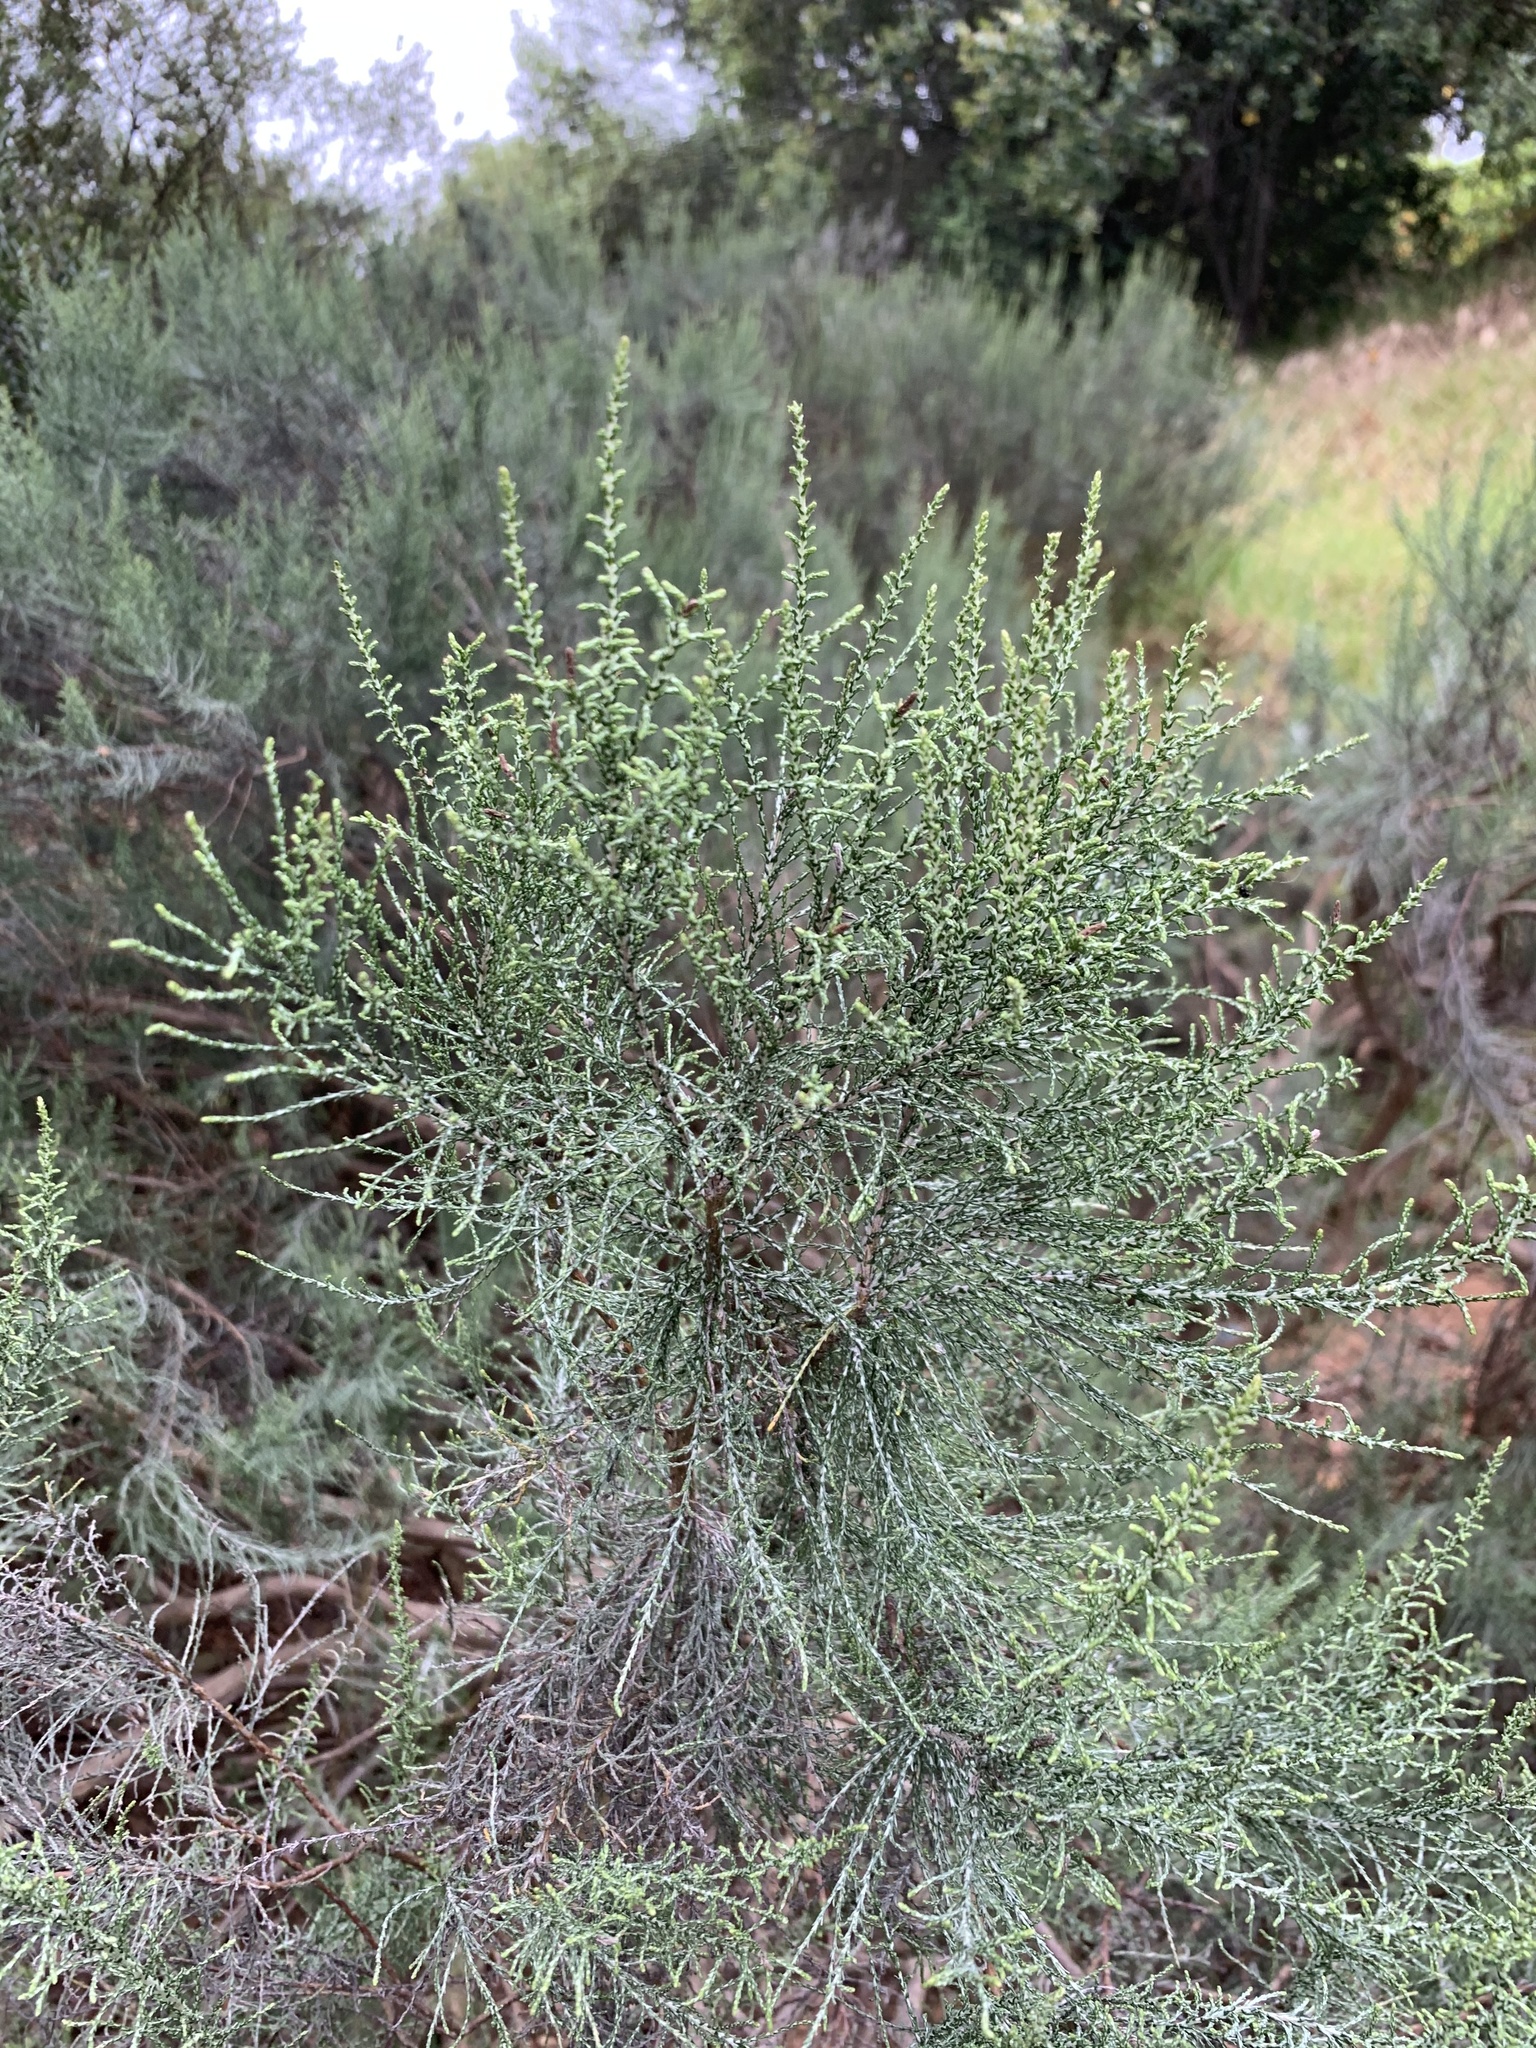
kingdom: Plantae
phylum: Tracheophyta
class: Magnoliopsida
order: Asterales
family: Asteraceae
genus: Dicerothamnus
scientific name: Dicerothamnus rhinocerotis
